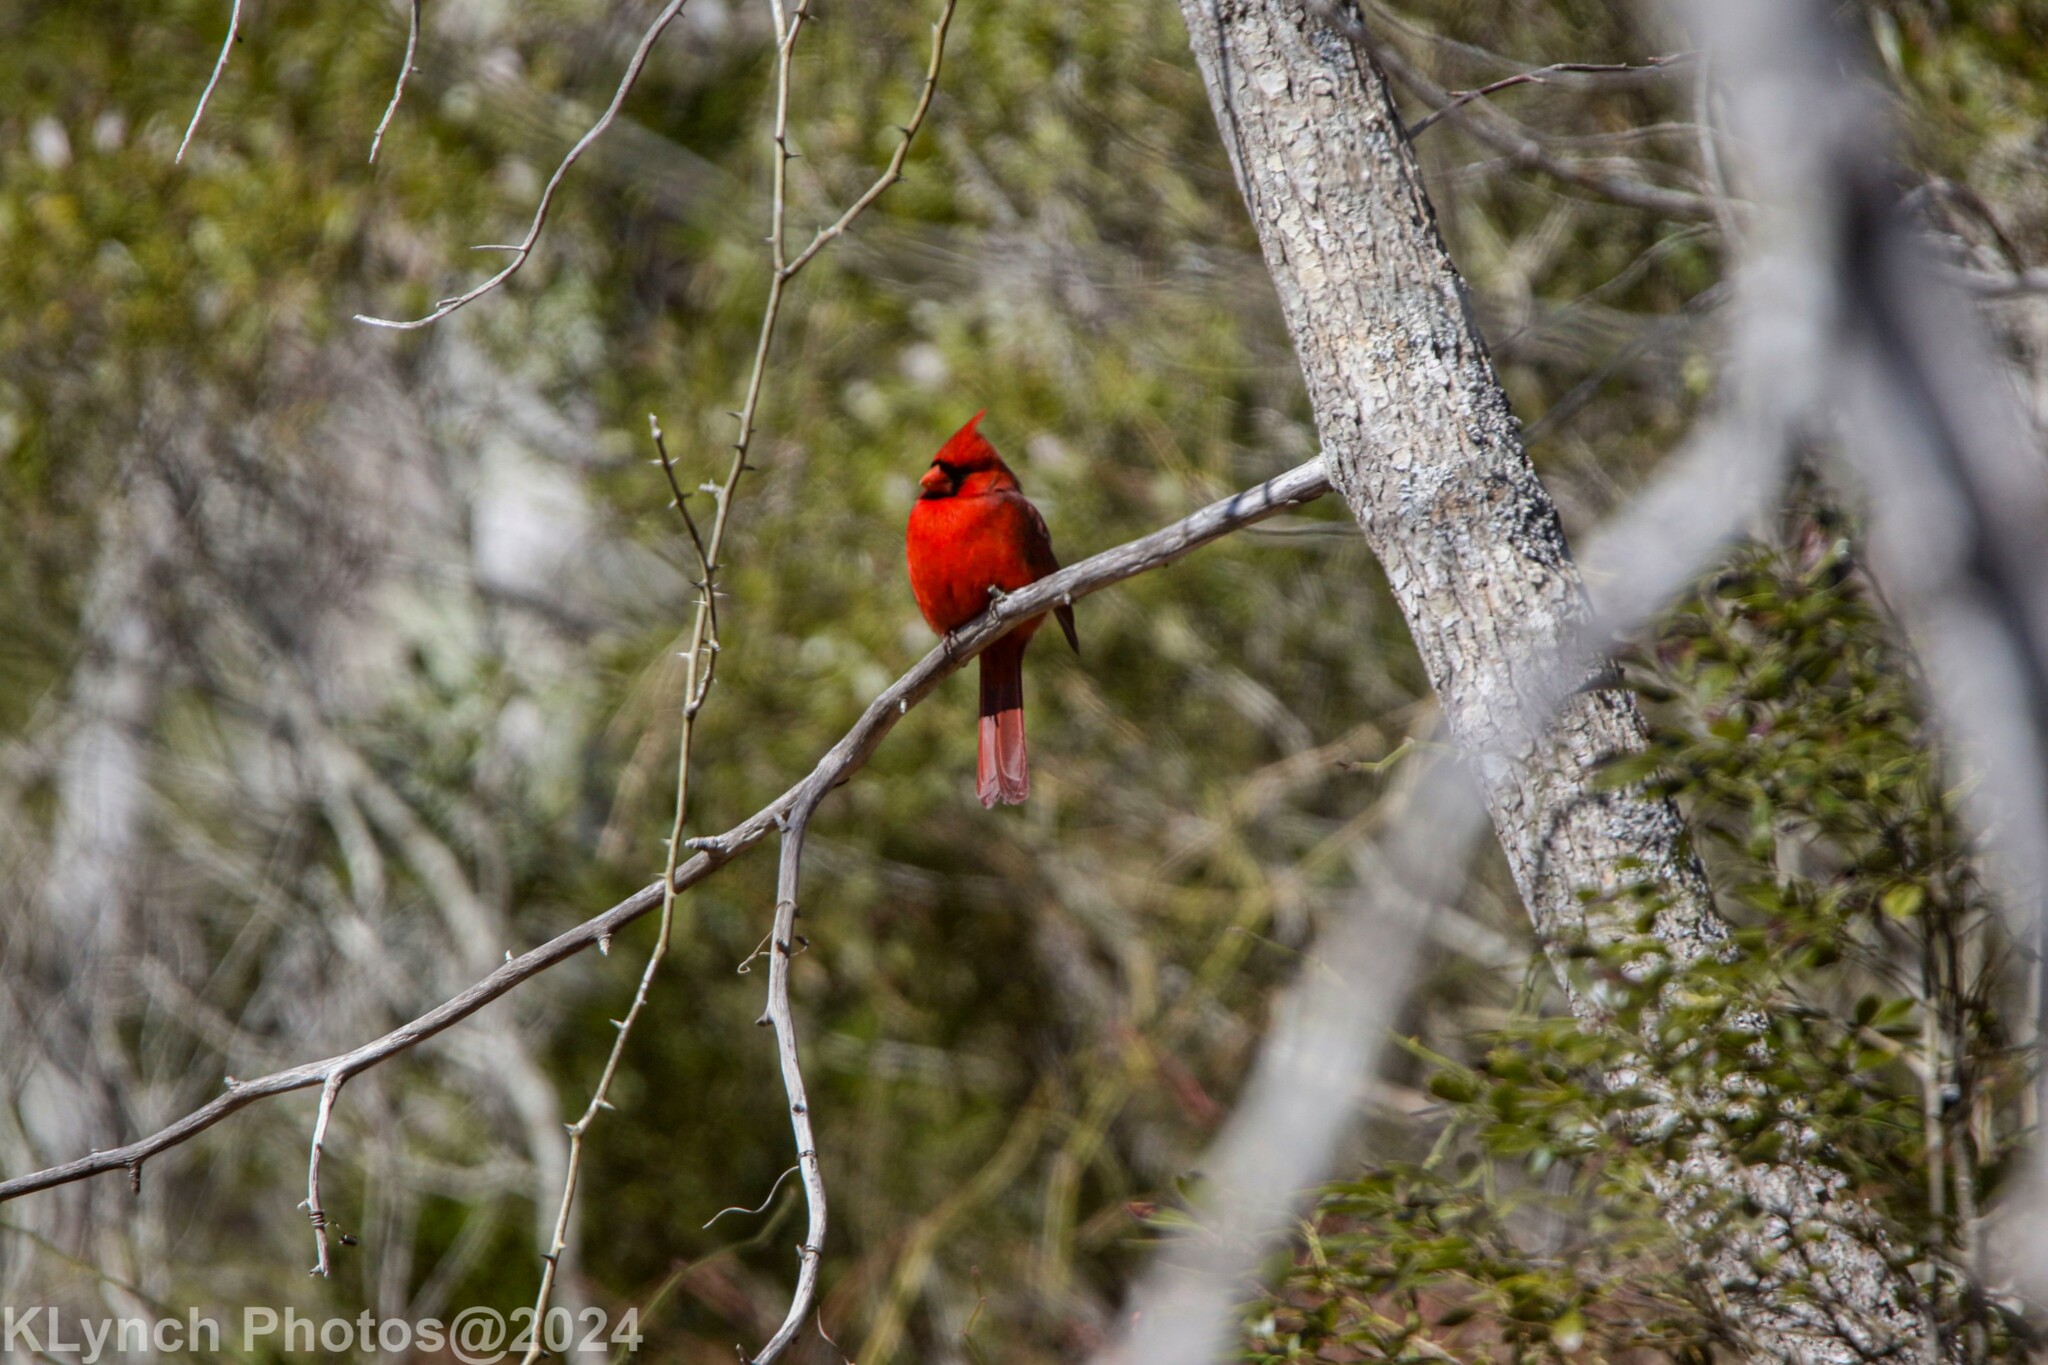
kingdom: Animalia
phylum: Chordata
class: Aves
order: Passeriformes
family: Cardinalidae
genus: Cardinalis
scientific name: Cardinalis cardinalis
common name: Northern cardinal
